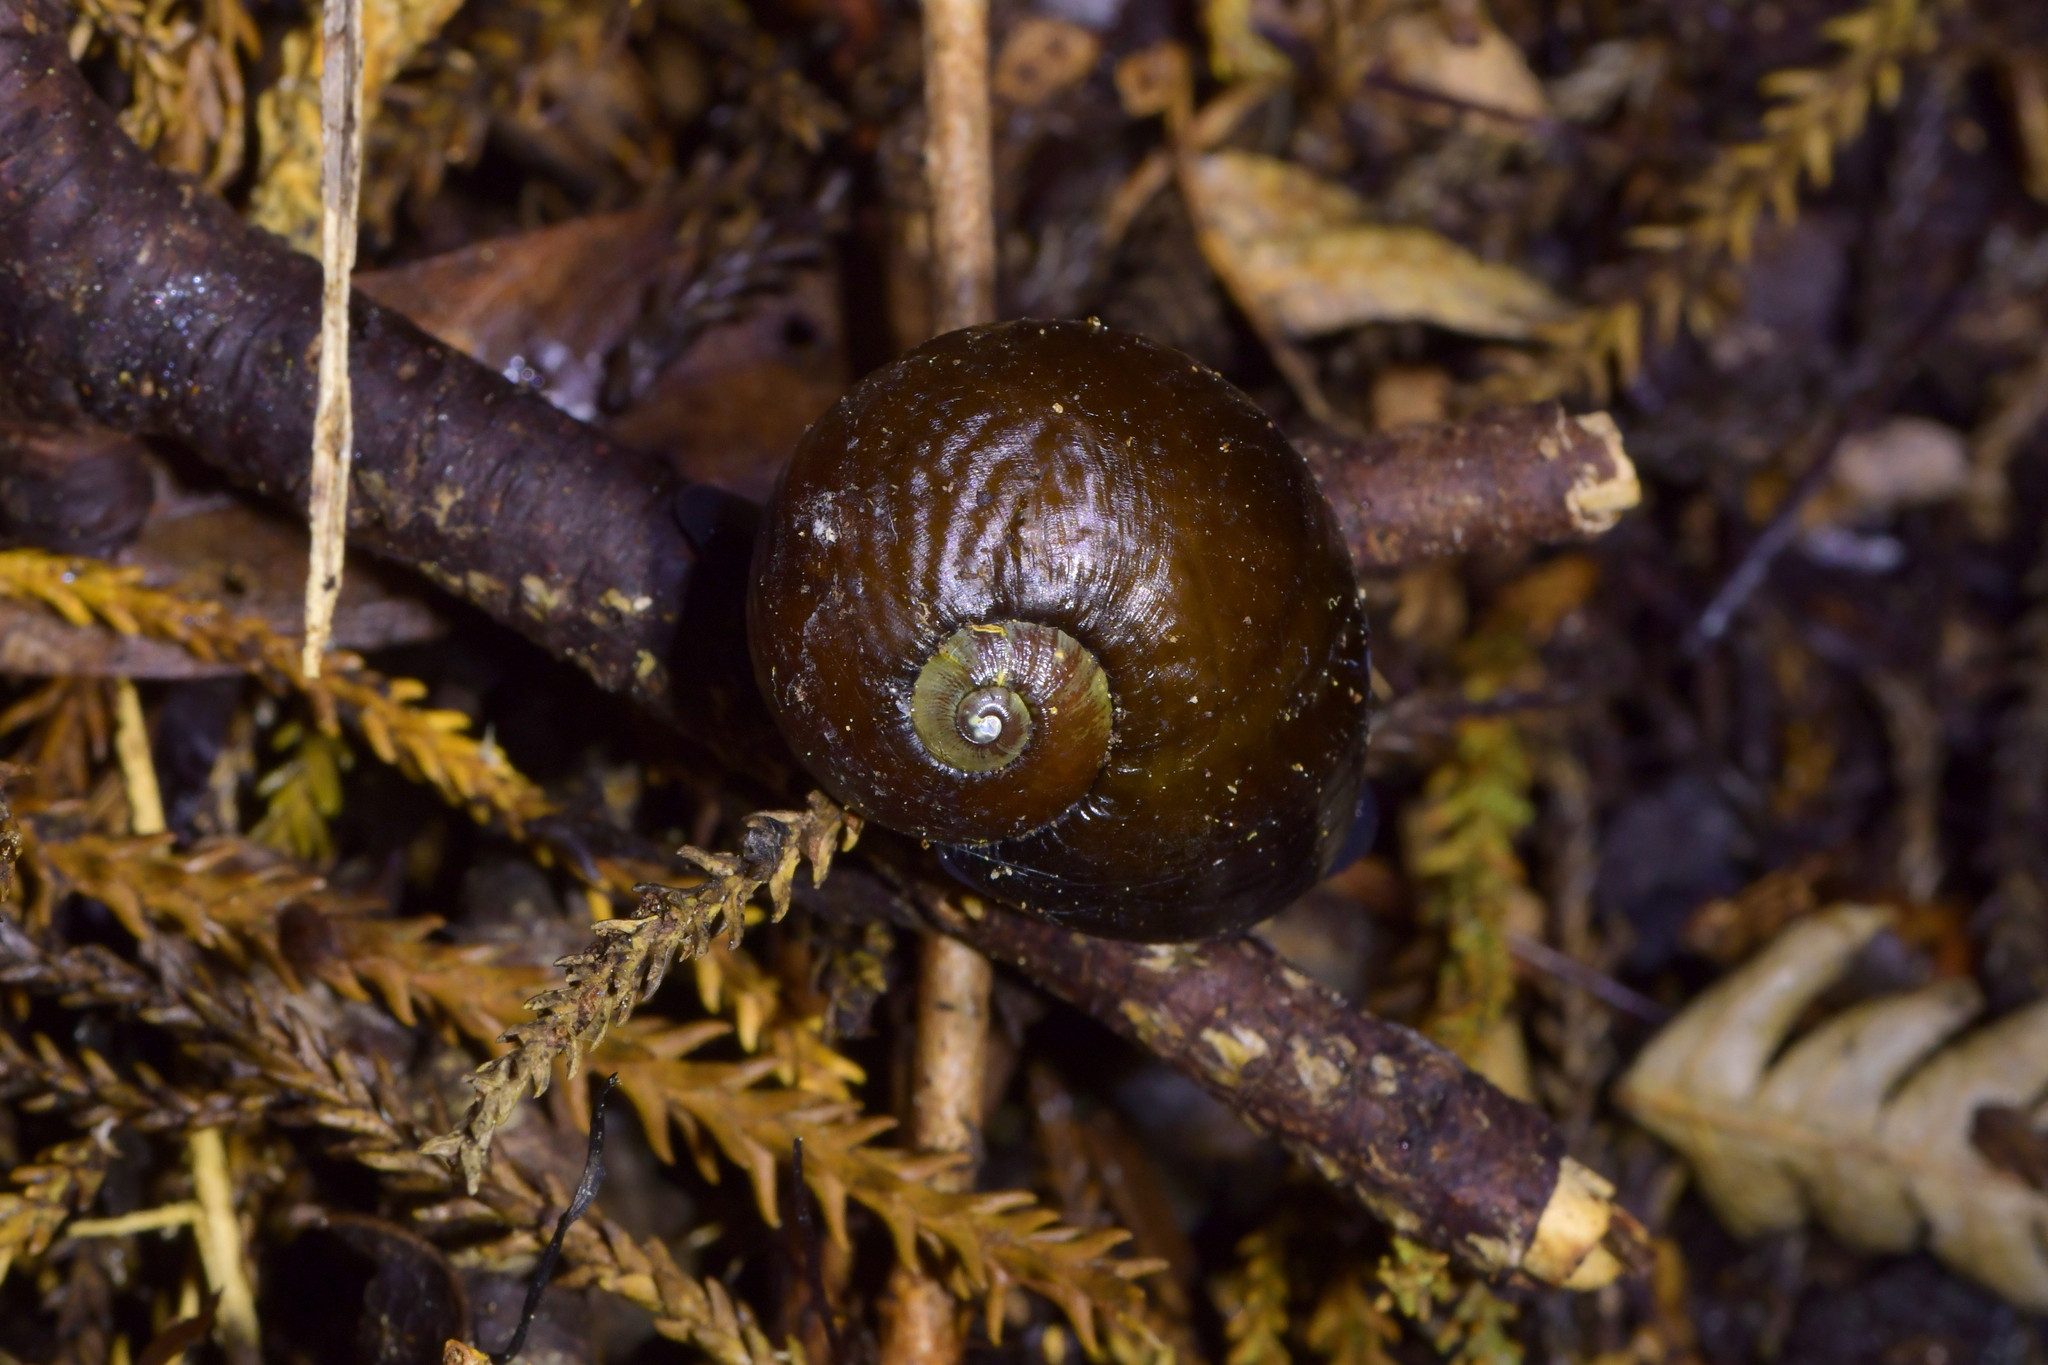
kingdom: Animalia
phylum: Mollusca
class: Gastropoda
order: Stylommatophora
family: Rhytididae
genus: Wainuia
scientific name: Wainuia urnula
